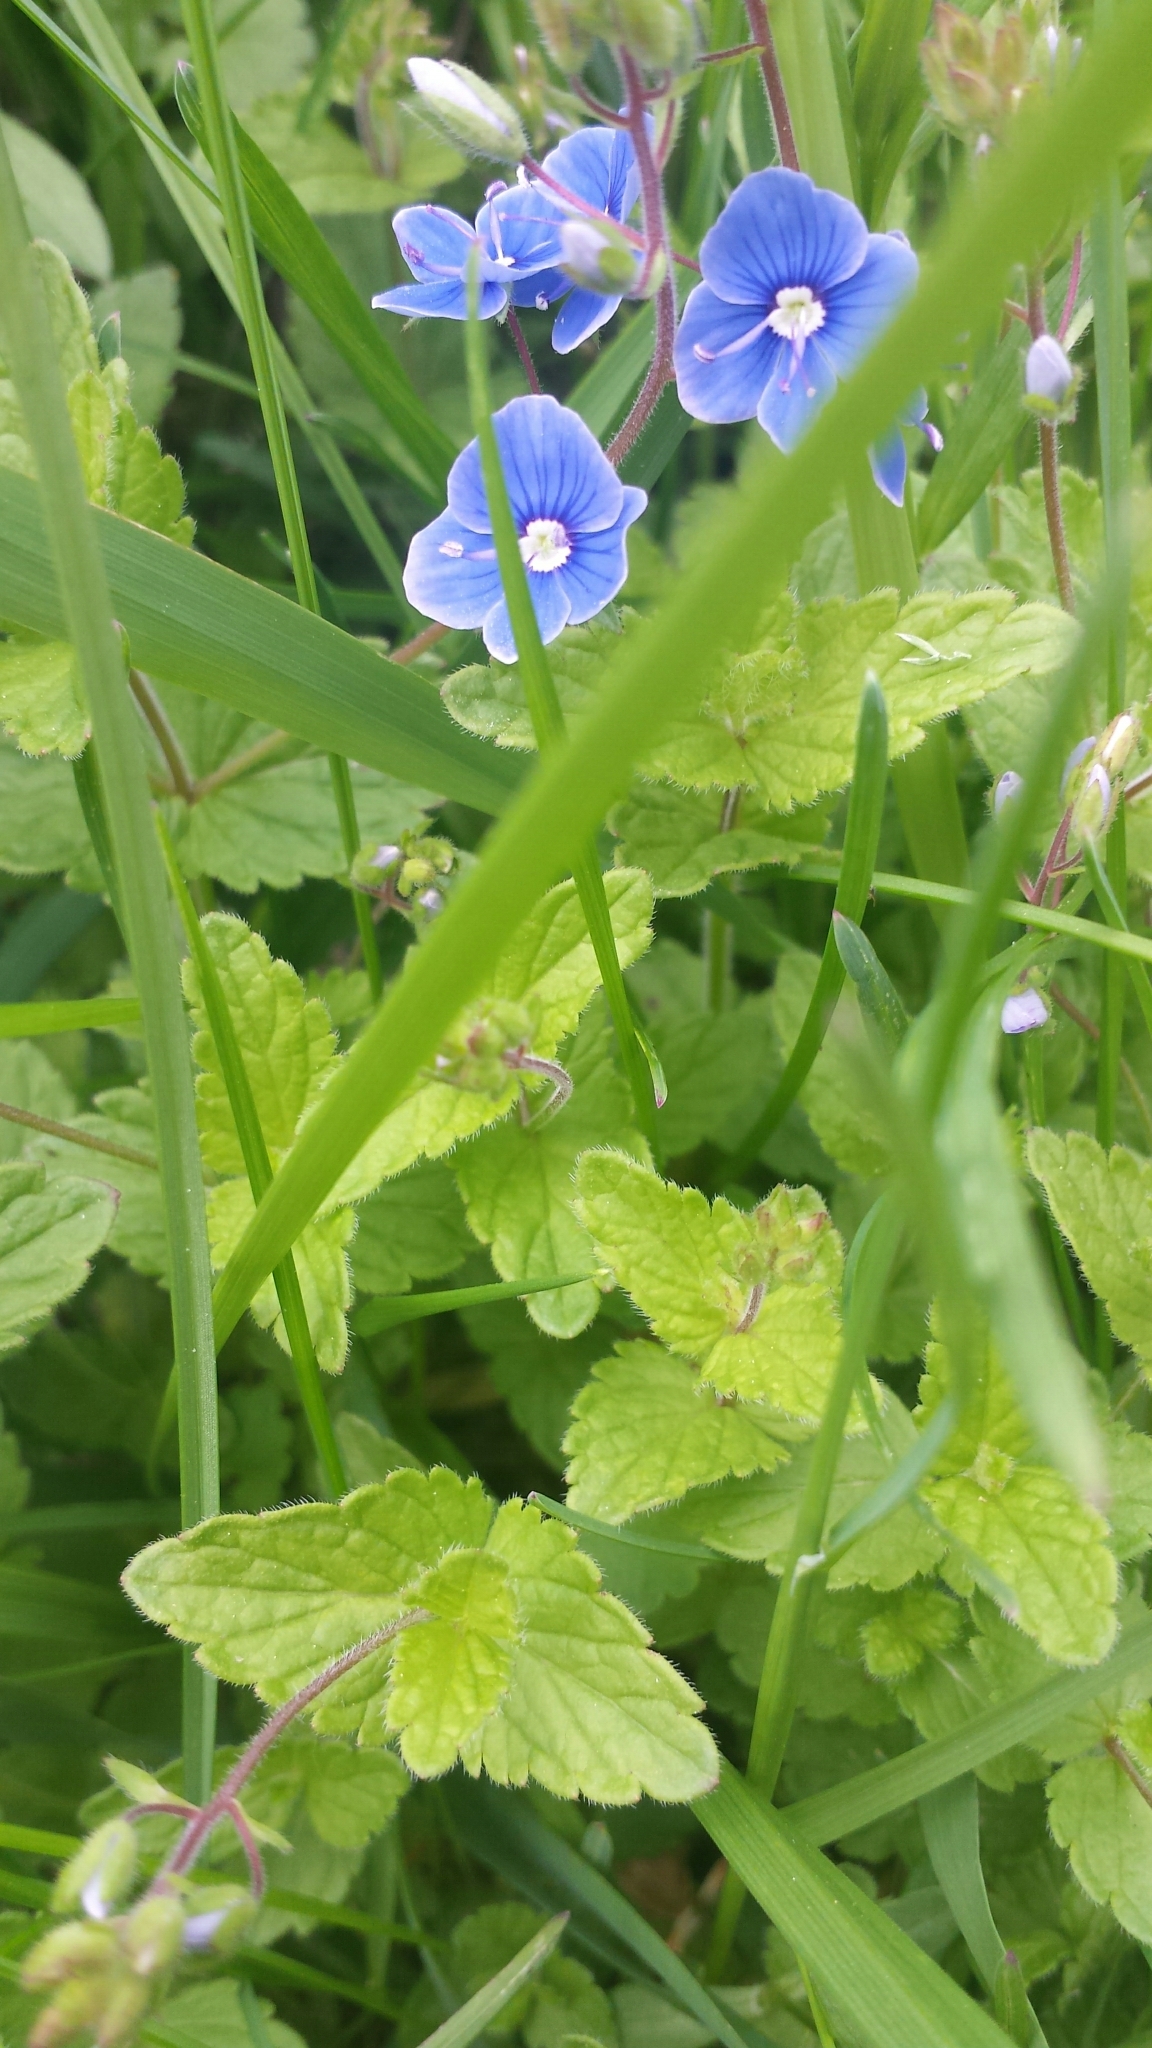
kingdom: Plantae
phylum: Tracheophyta
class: Magnoliopsida
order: Lamiales
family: Plantaginaceae
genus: Veronica
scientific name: Veronica chamaedrys
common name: Germander speedwell
